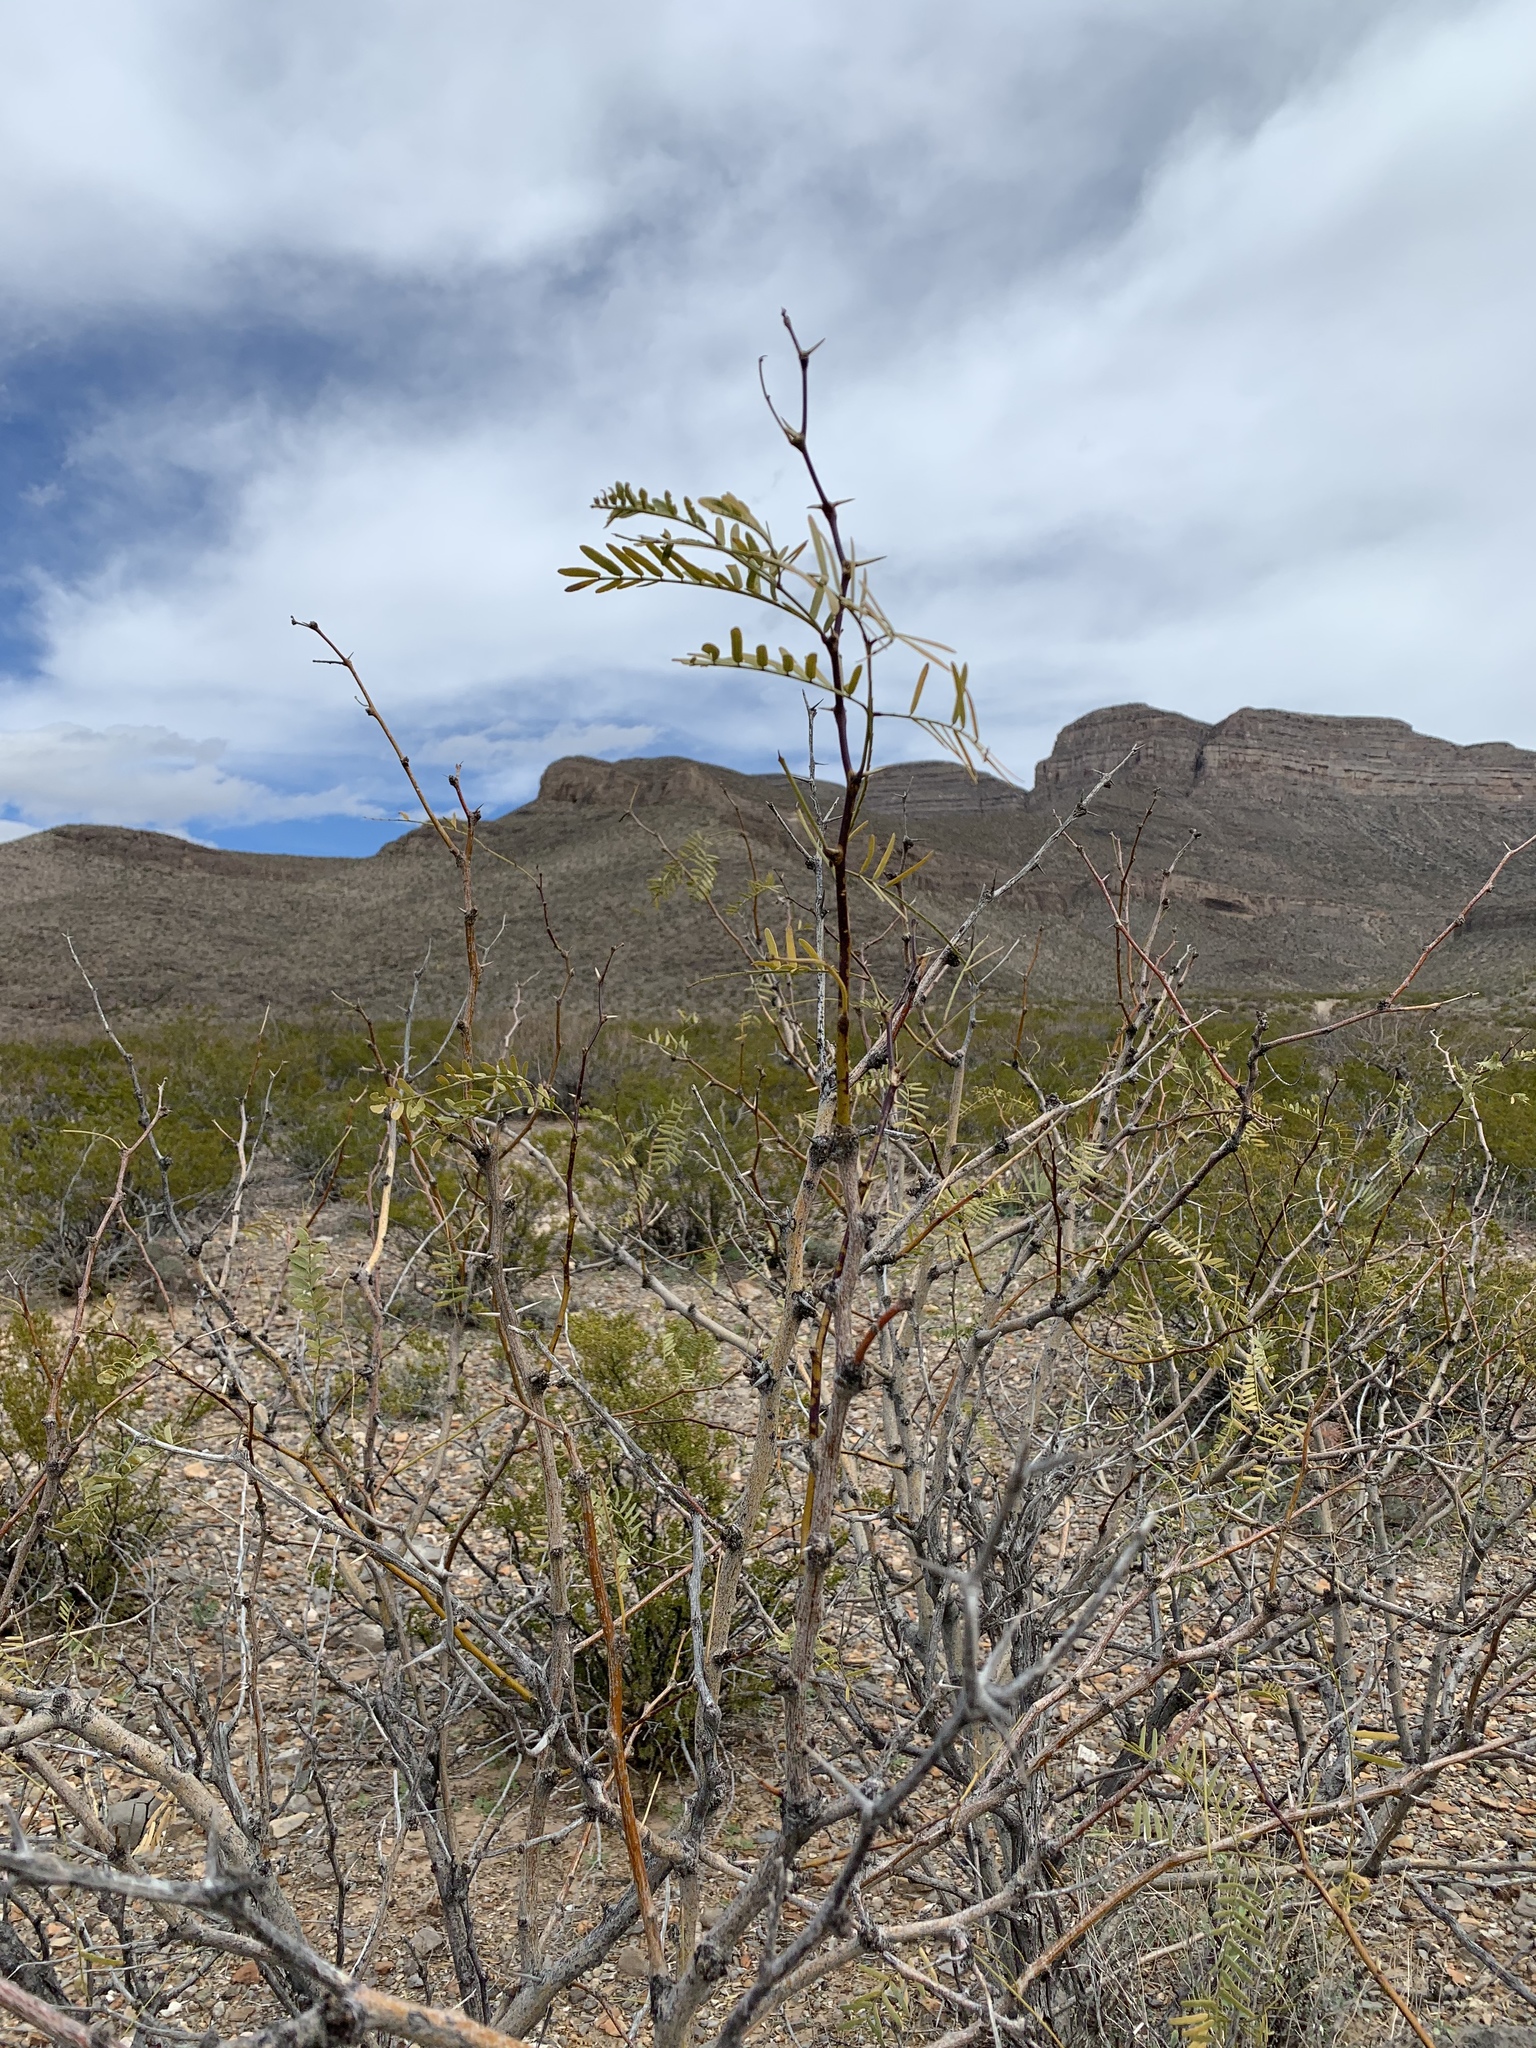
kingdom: Plantae
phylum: Tracheophyta
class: Magnoliopsida
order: Fabales
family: Fabaceae
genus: Prosopis
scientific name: Prosopis glandulosa
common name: Honey mesquite
